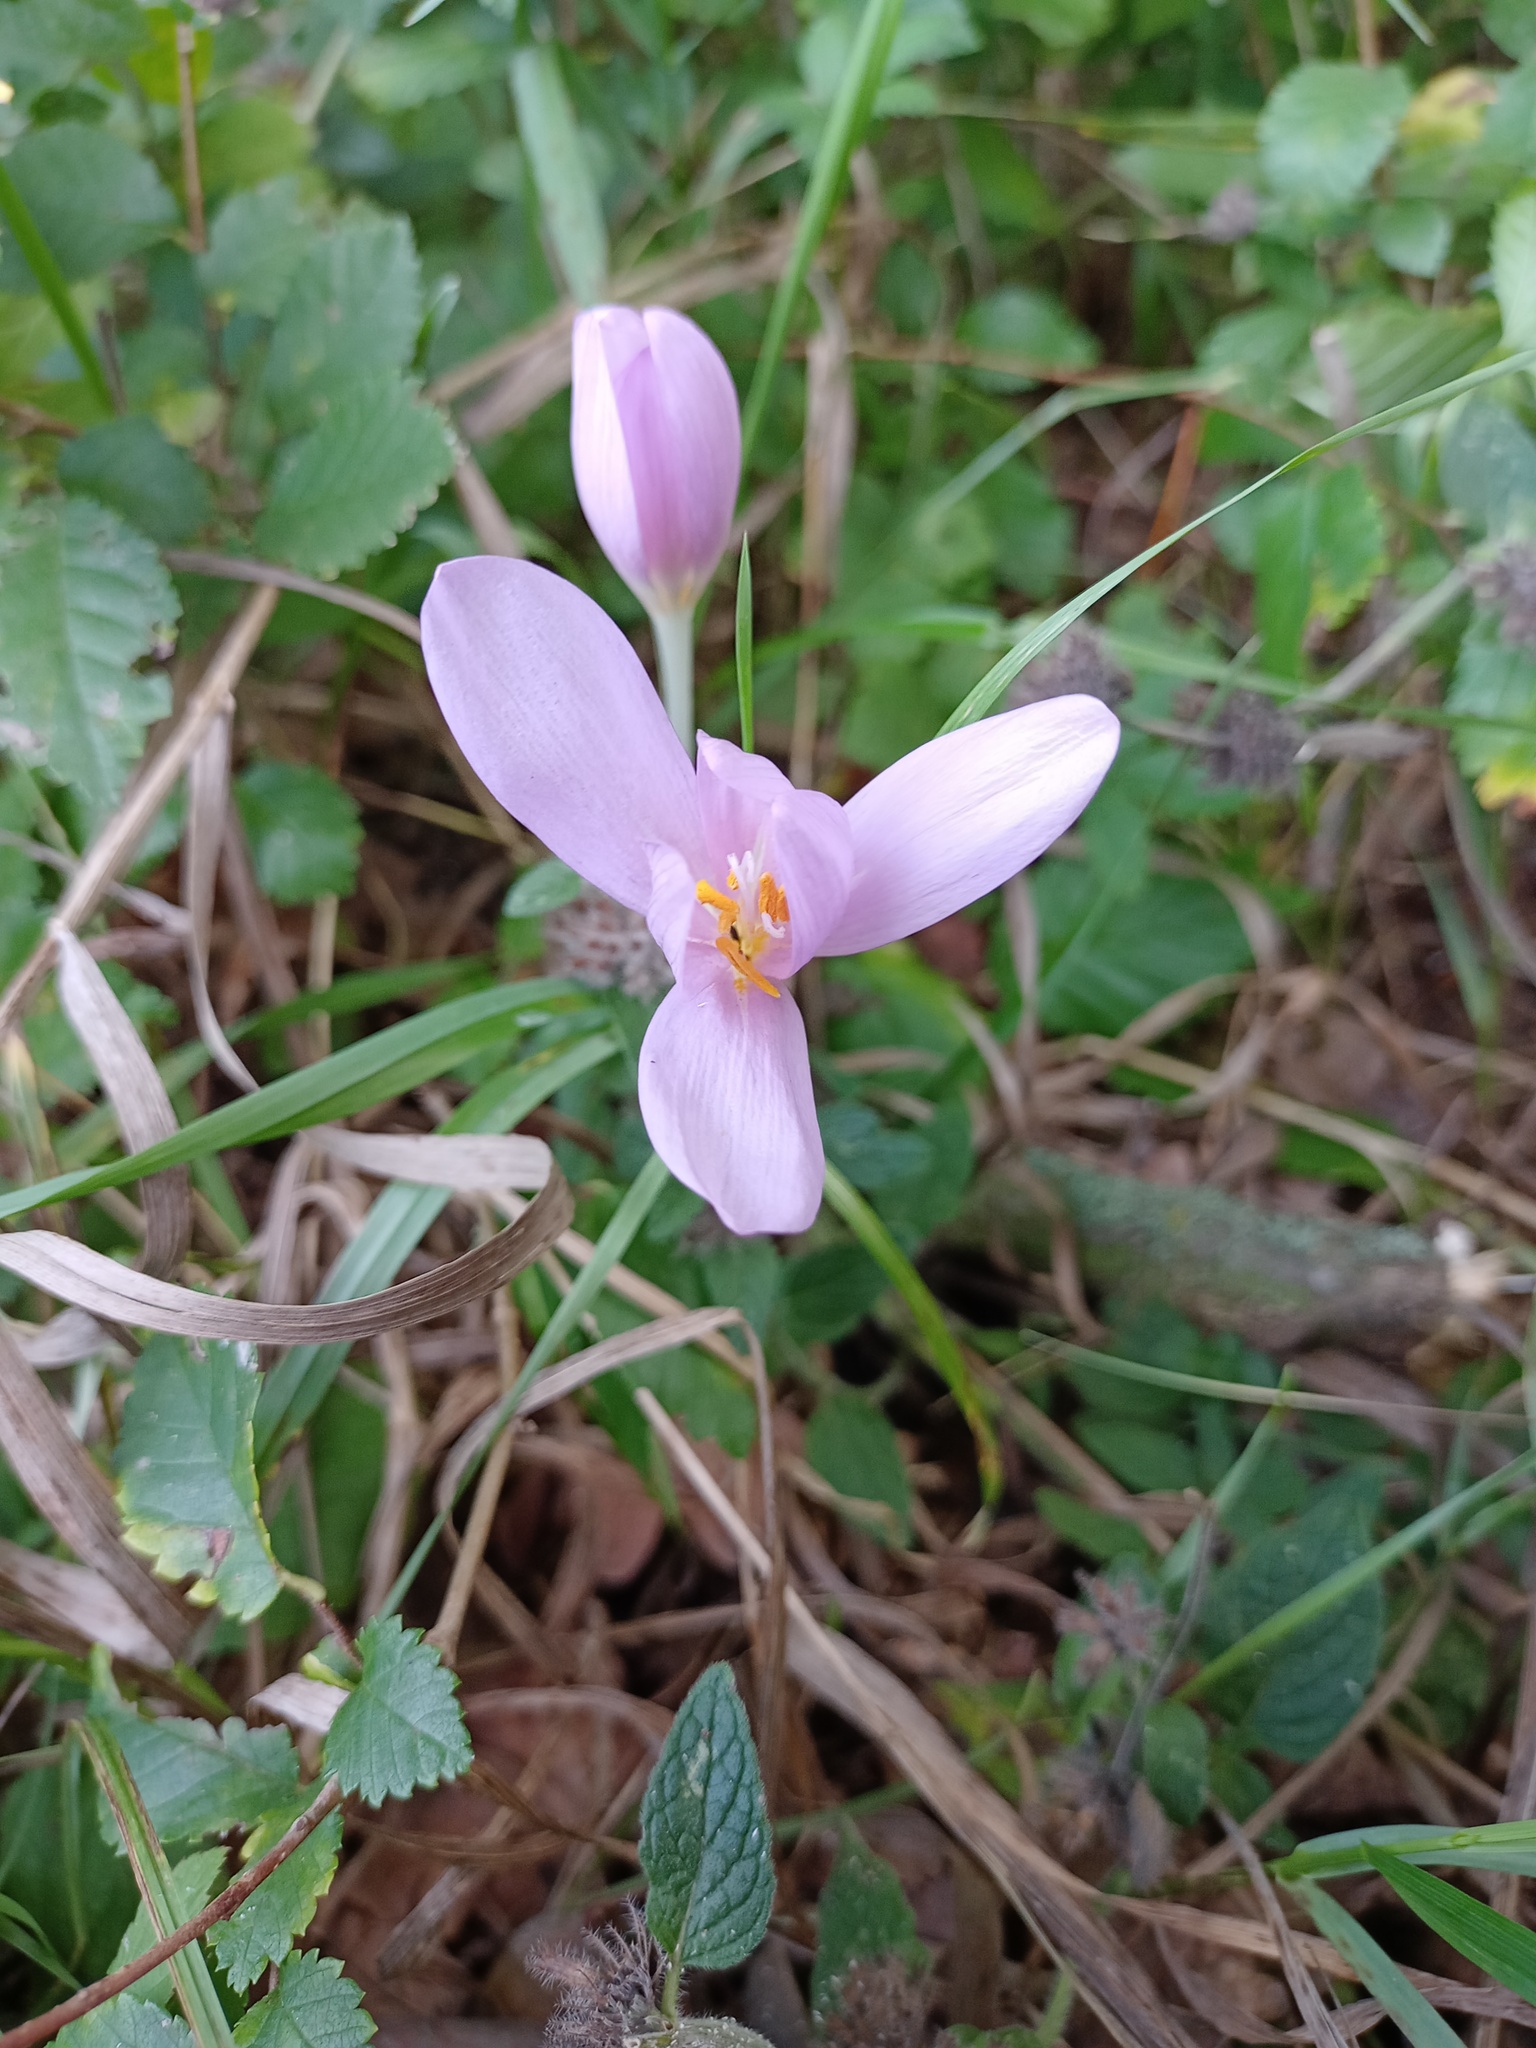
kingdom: Plantae
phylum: Tracheophyta
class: Liliopsida
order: Liliales
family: Colchicaceae
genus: Colchicum
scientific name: Colchicum autumnale
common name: Autumn crocus
